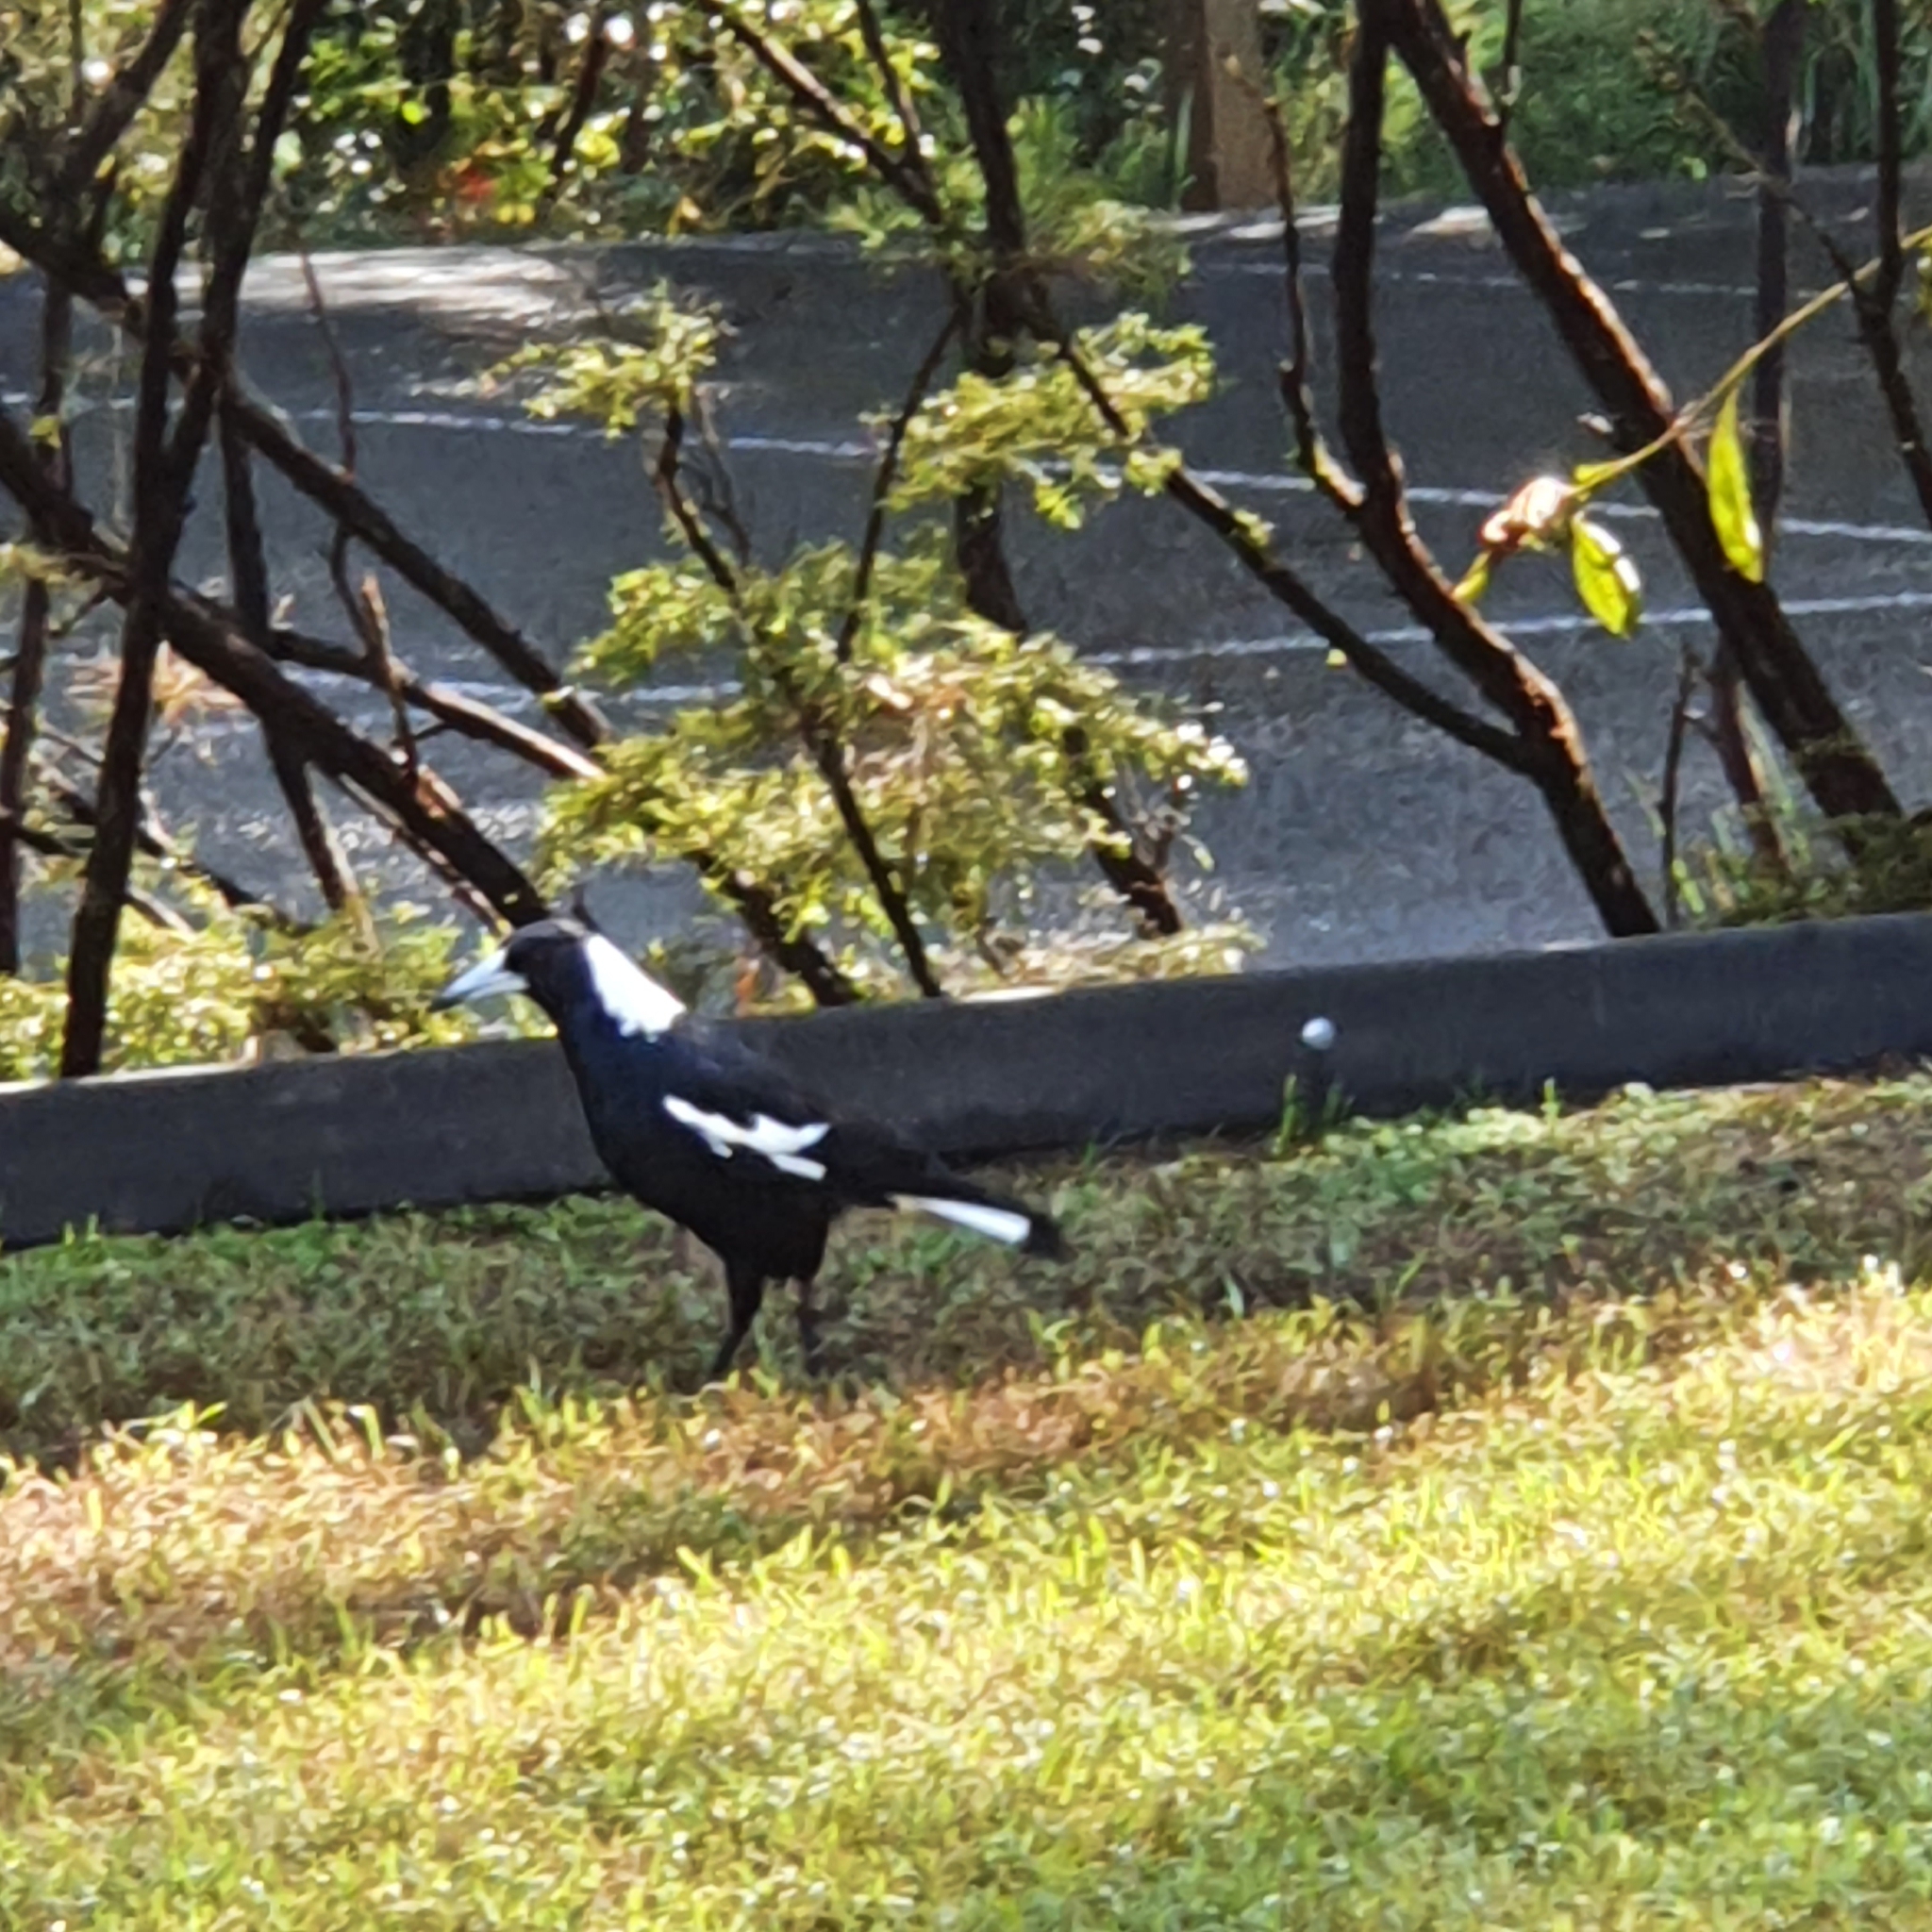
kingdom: Animalia
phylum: Chordata
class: Aves
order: Passeriformes
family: Cracticidae
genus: Gymnorhina
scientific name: Gymnorhina tibicen
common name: Australian magpie
